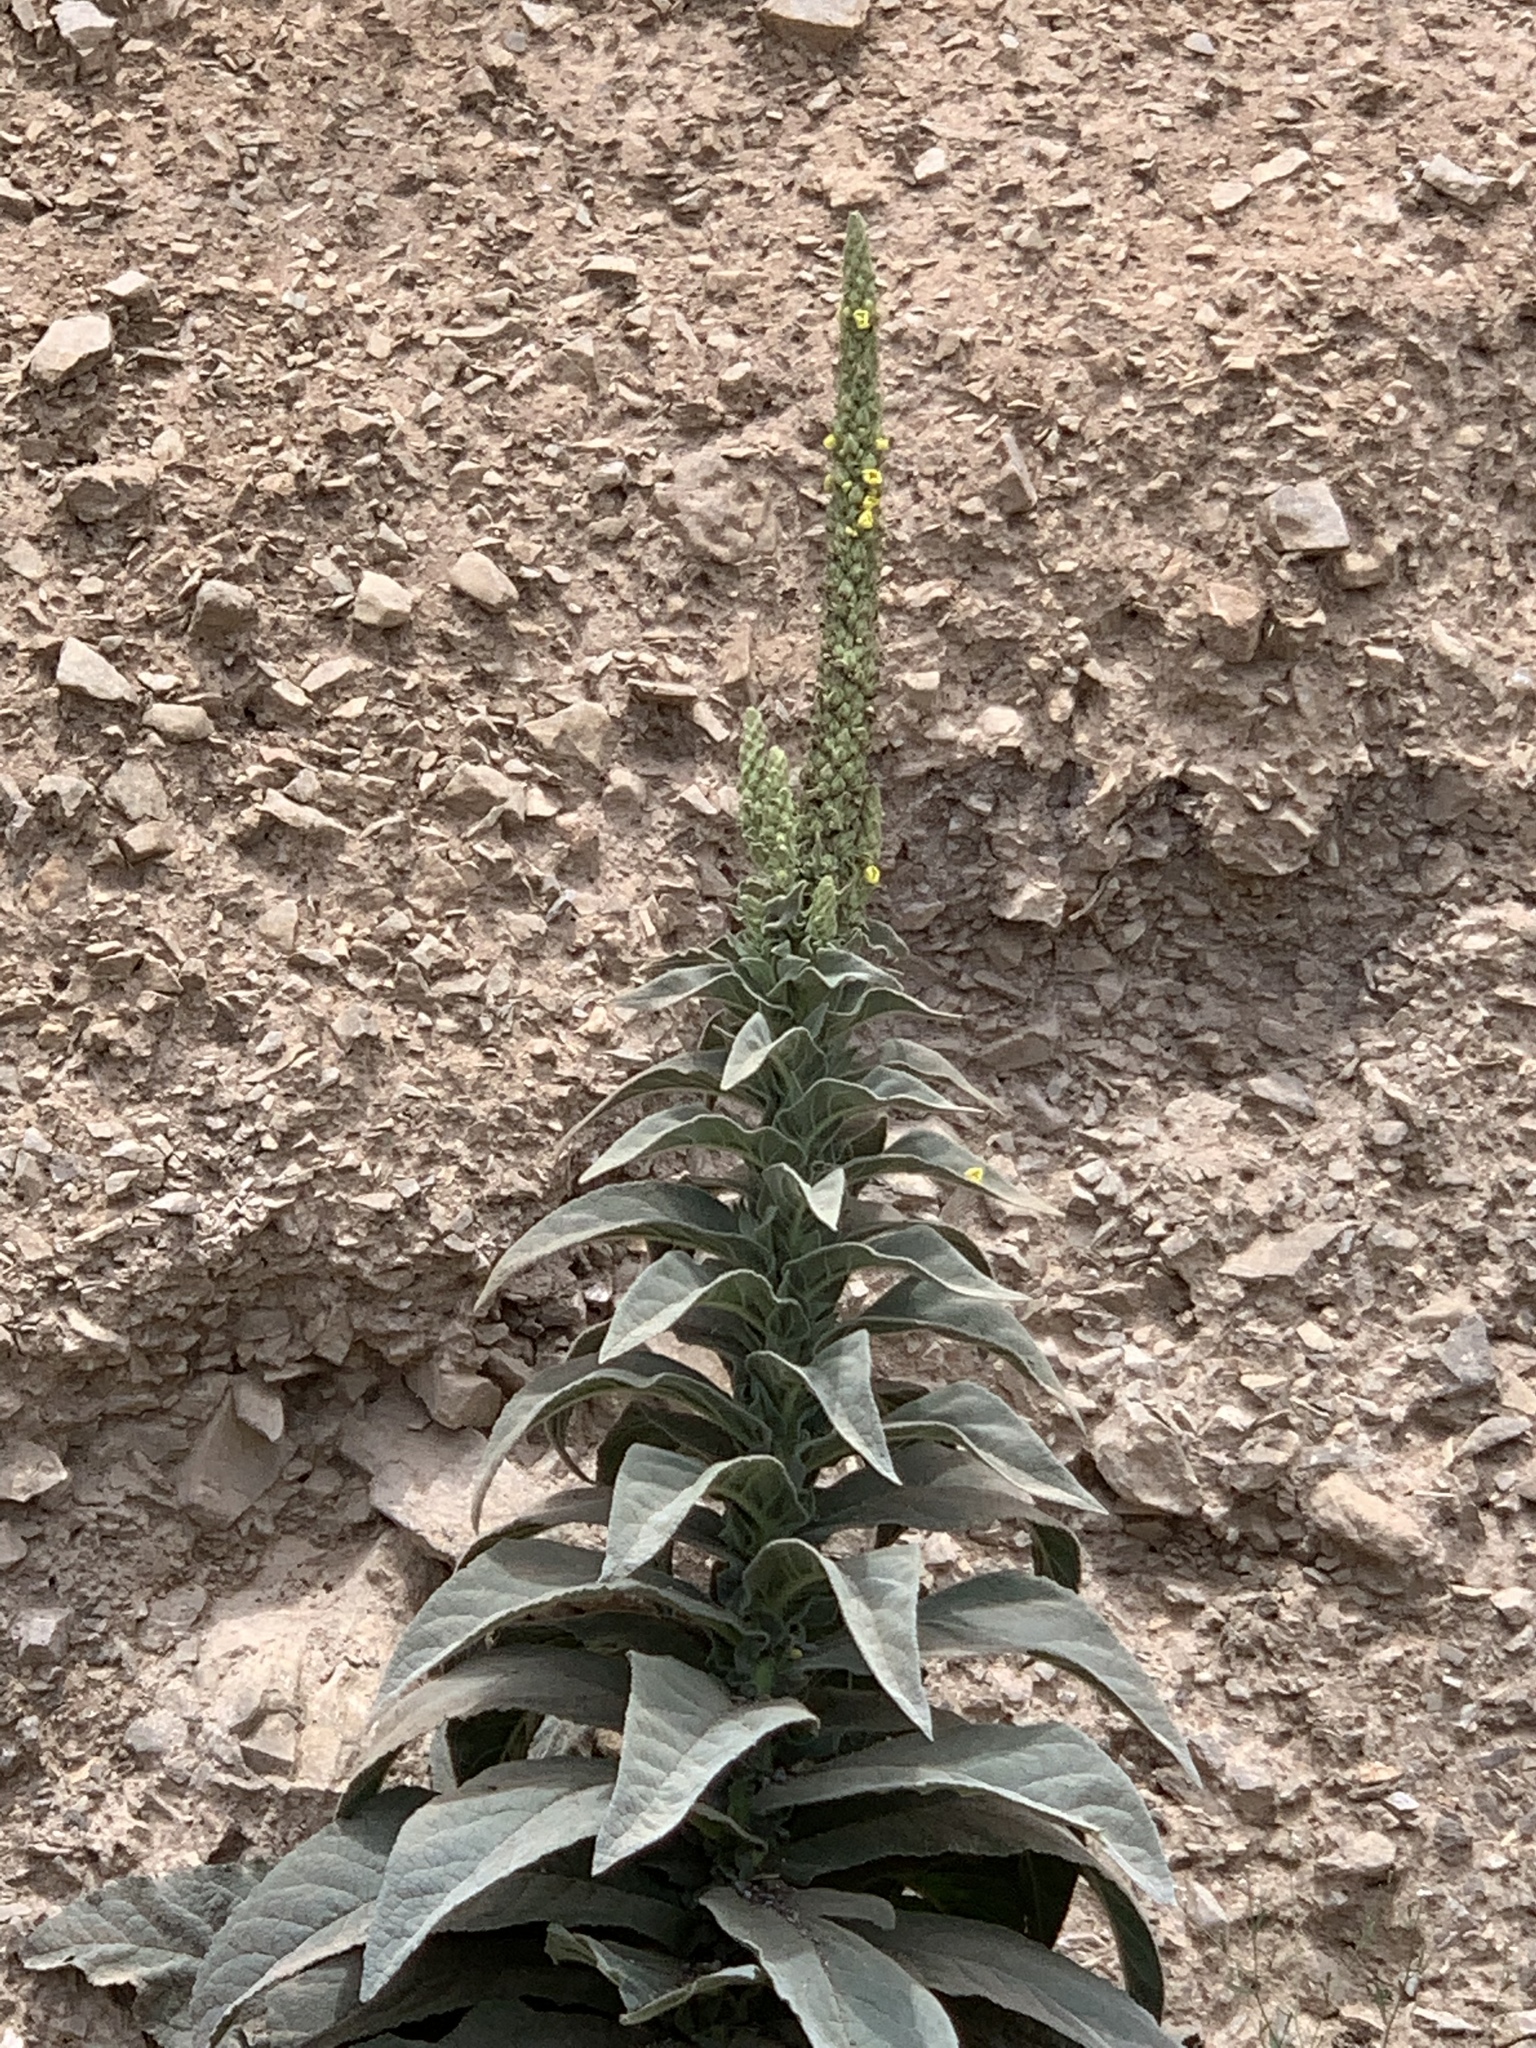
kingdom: Plantae
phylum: Tracheophyta
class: Magnoliopsida
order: Lamiales
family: Scrophulariaceae
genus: Verbascum
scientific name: Verbascum thapsus
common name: Common mullein
